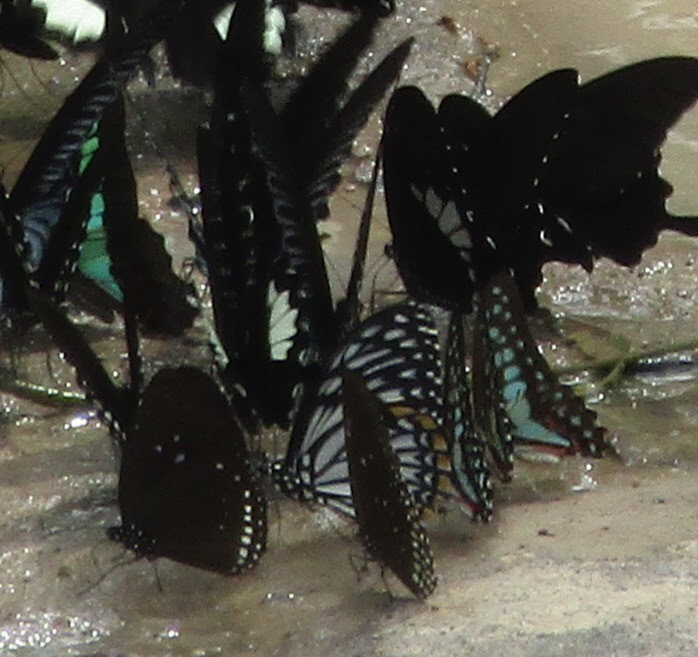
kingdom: Animalia
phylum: Arthropoda
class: Insecta
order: Lepidoptera
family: Papilionidae
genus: Graphium
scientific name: Graphium doson
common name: Common jay
